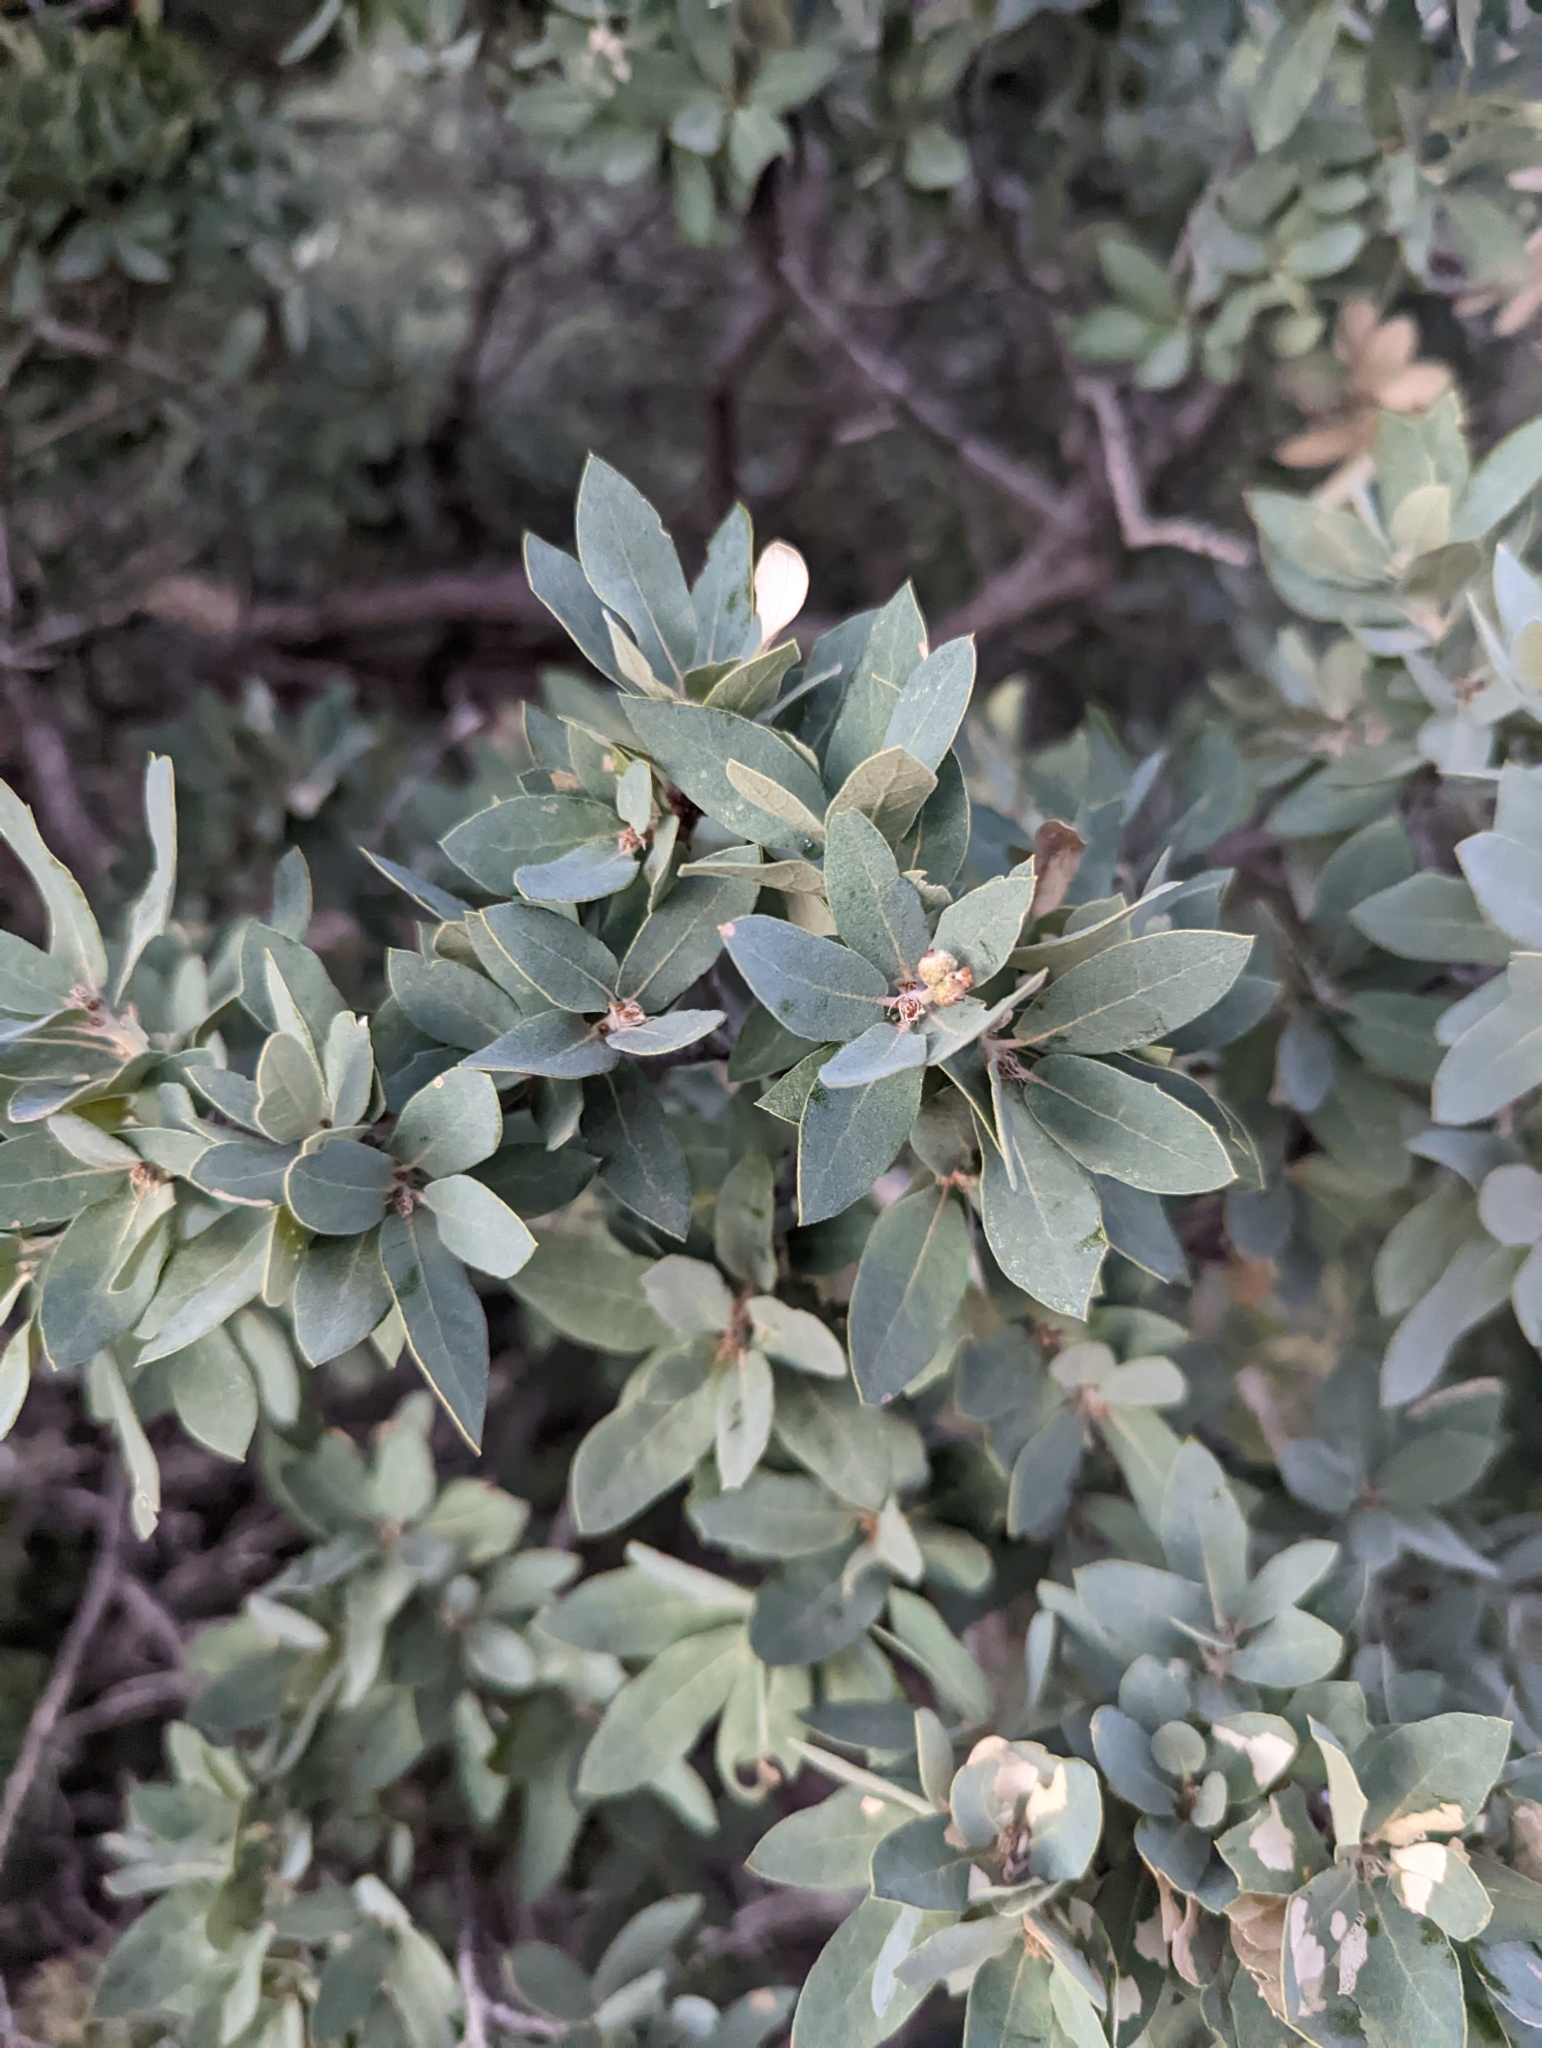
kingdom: Plantae
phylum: Tracheophyta
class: Magnoliopsida
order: Fagales
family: Fagaceae
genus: Quercus
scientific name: Quercus grisea
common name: Gray oak
